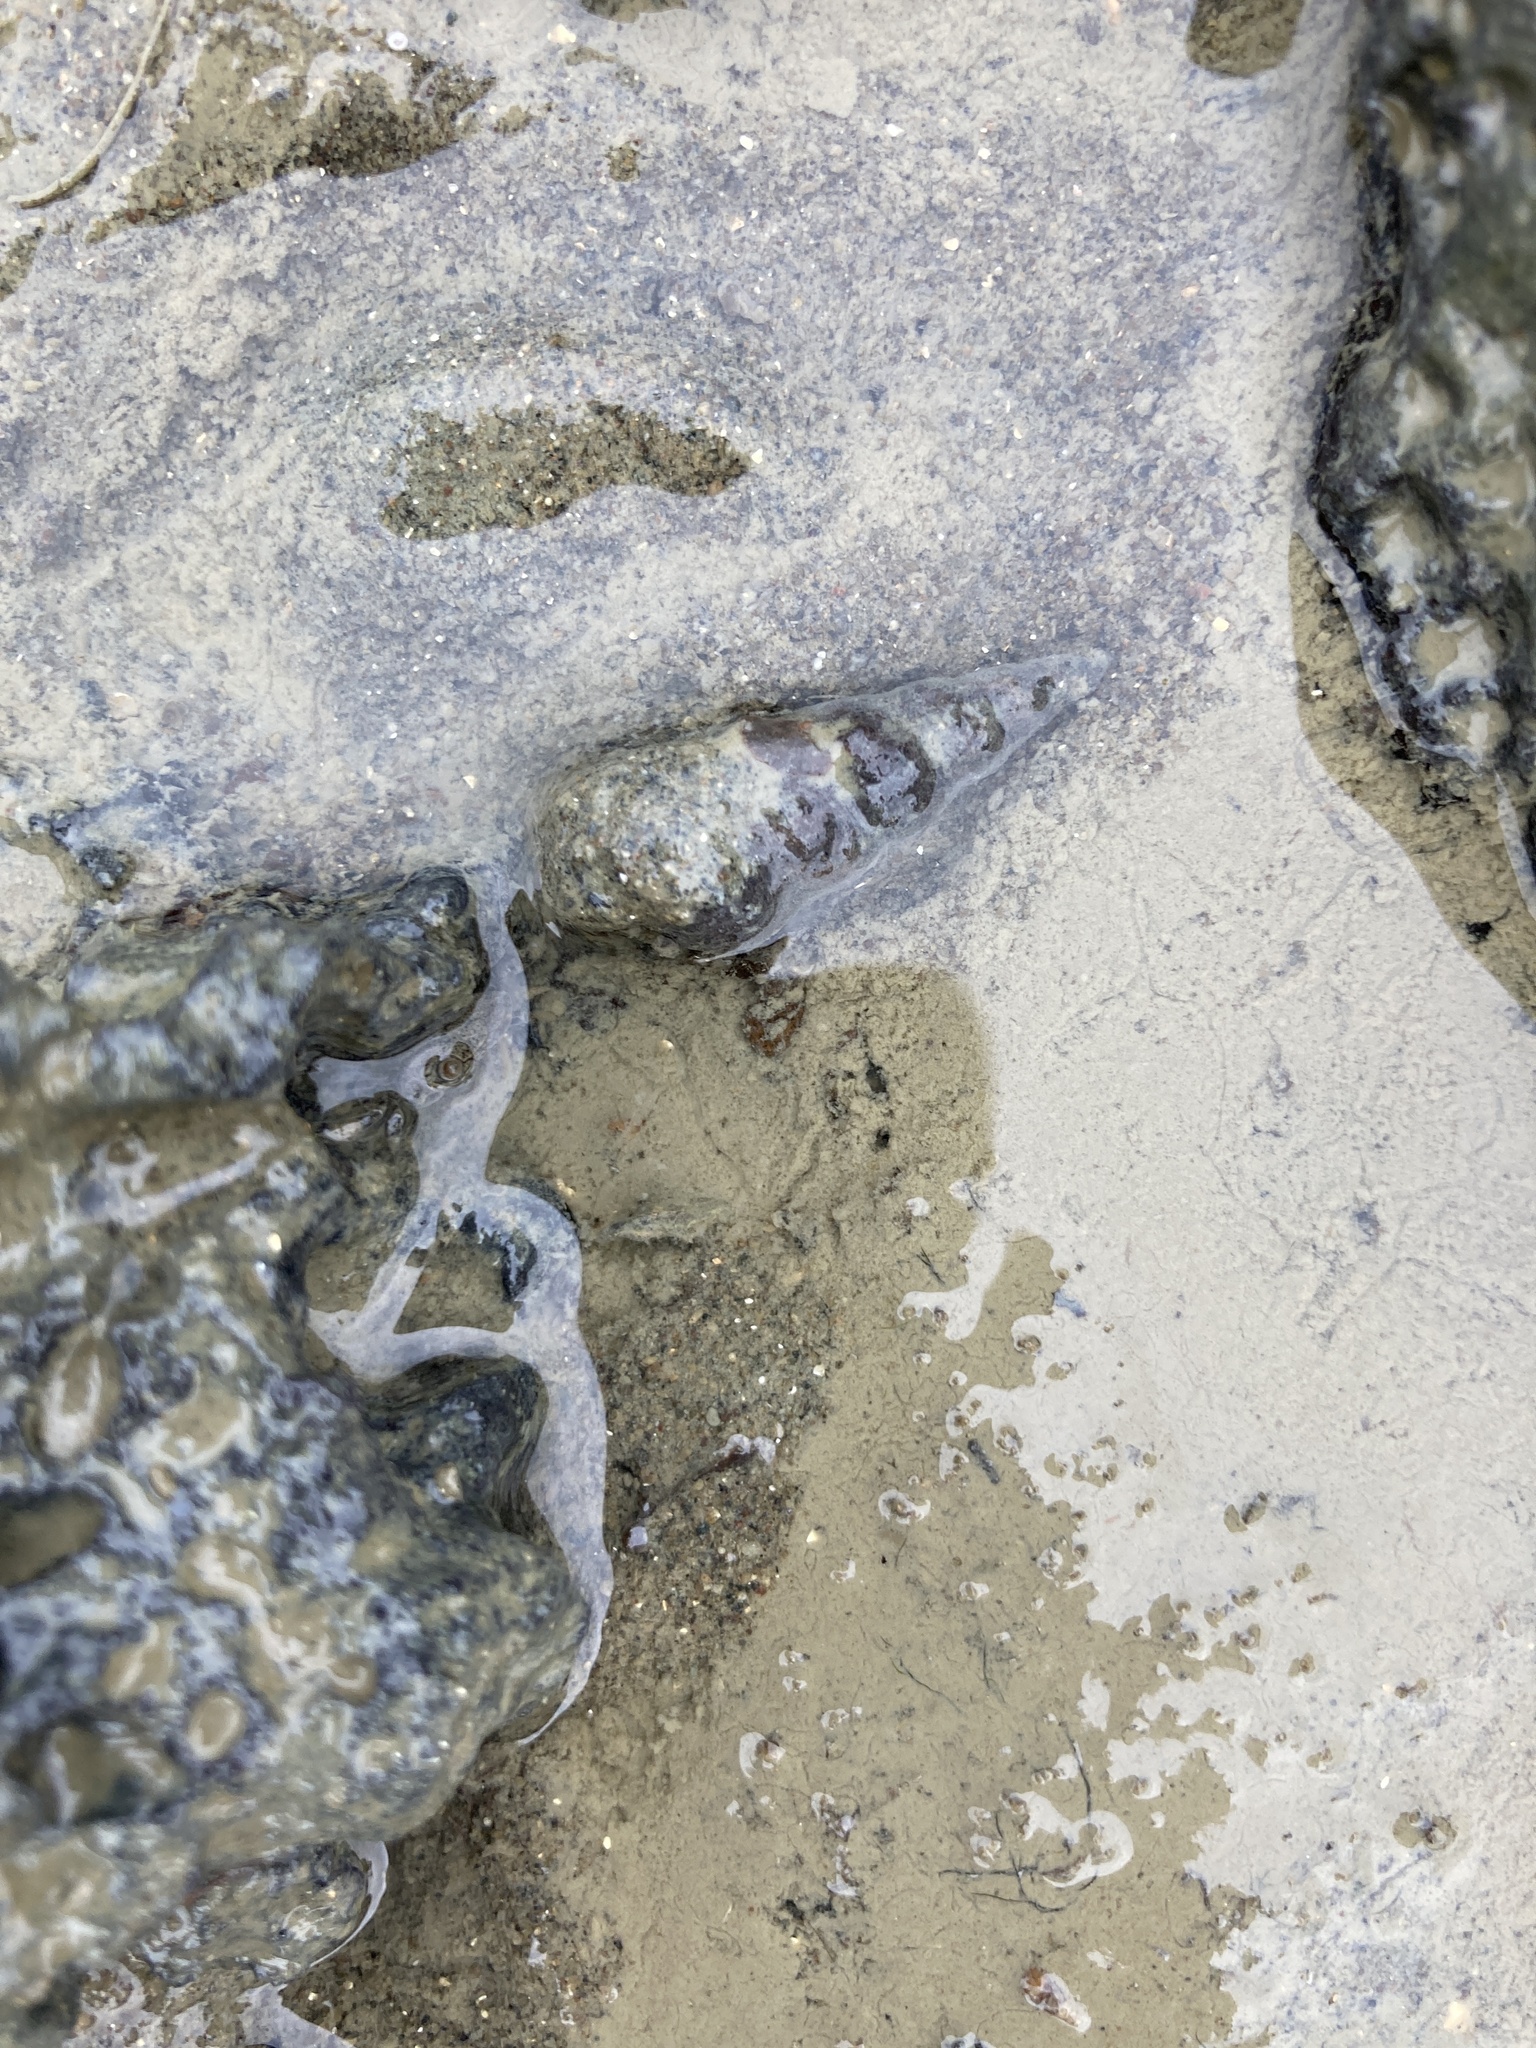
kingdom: Animalia
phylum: Mollusca
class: Gastropoda
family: Batillariidae
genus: Zeacumantus
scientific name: Zeacumantus lutulentus
